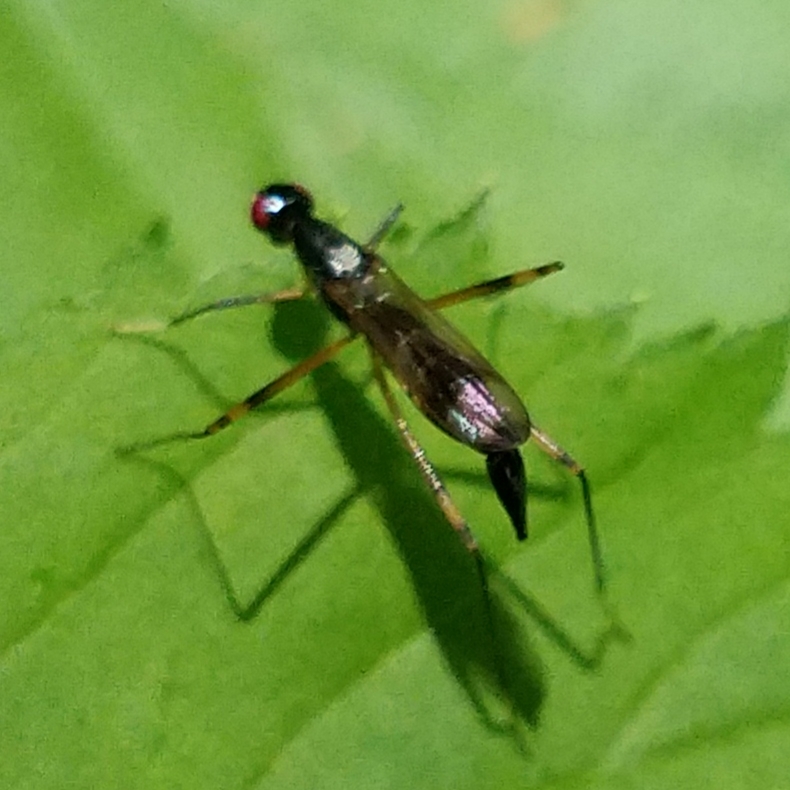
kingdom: Animalia
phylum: Arthropoda
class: Insecta
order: Diptera
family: Micropezidae
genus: Rainieria
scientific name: Rainieria antennaepes
